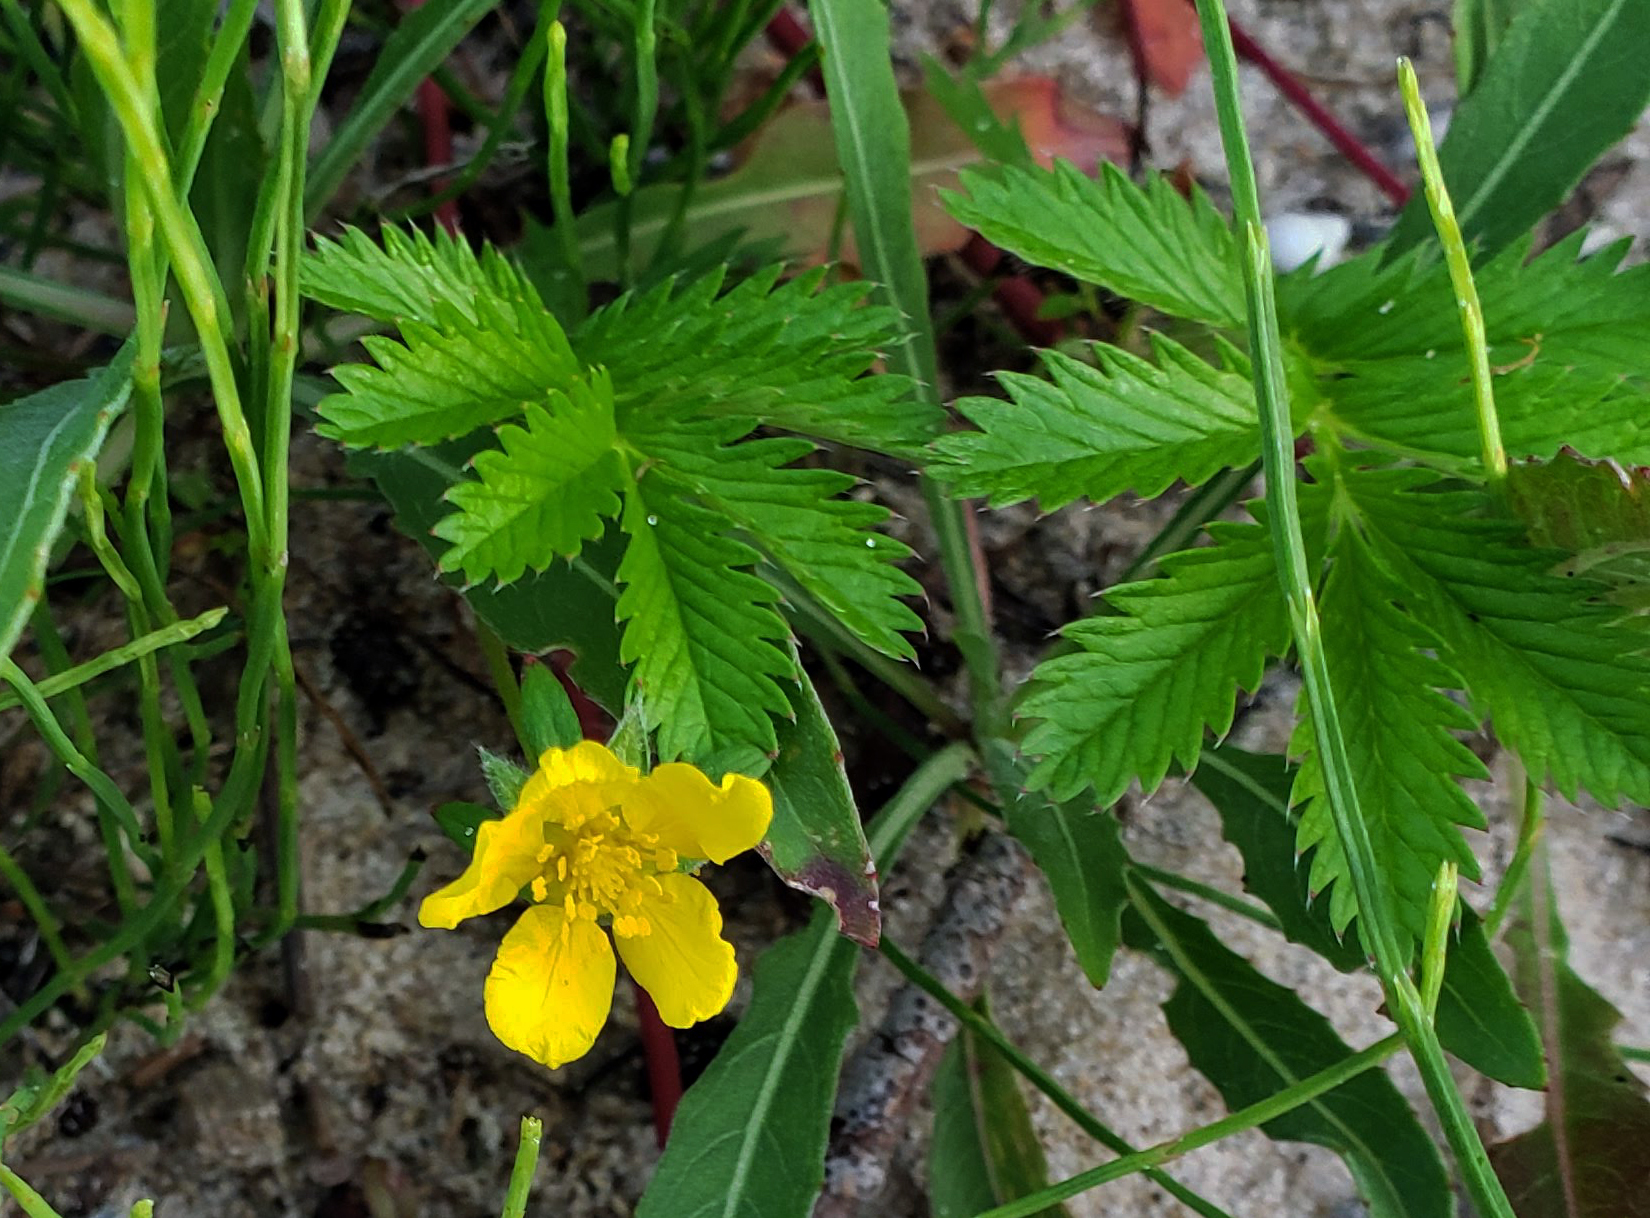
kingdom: Plantae
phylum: Tracheophyta
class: Magnoliopsida
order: Rosales
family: Rosaceae
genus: Argentina
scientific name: Argentina anserina
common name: Common silverweed
